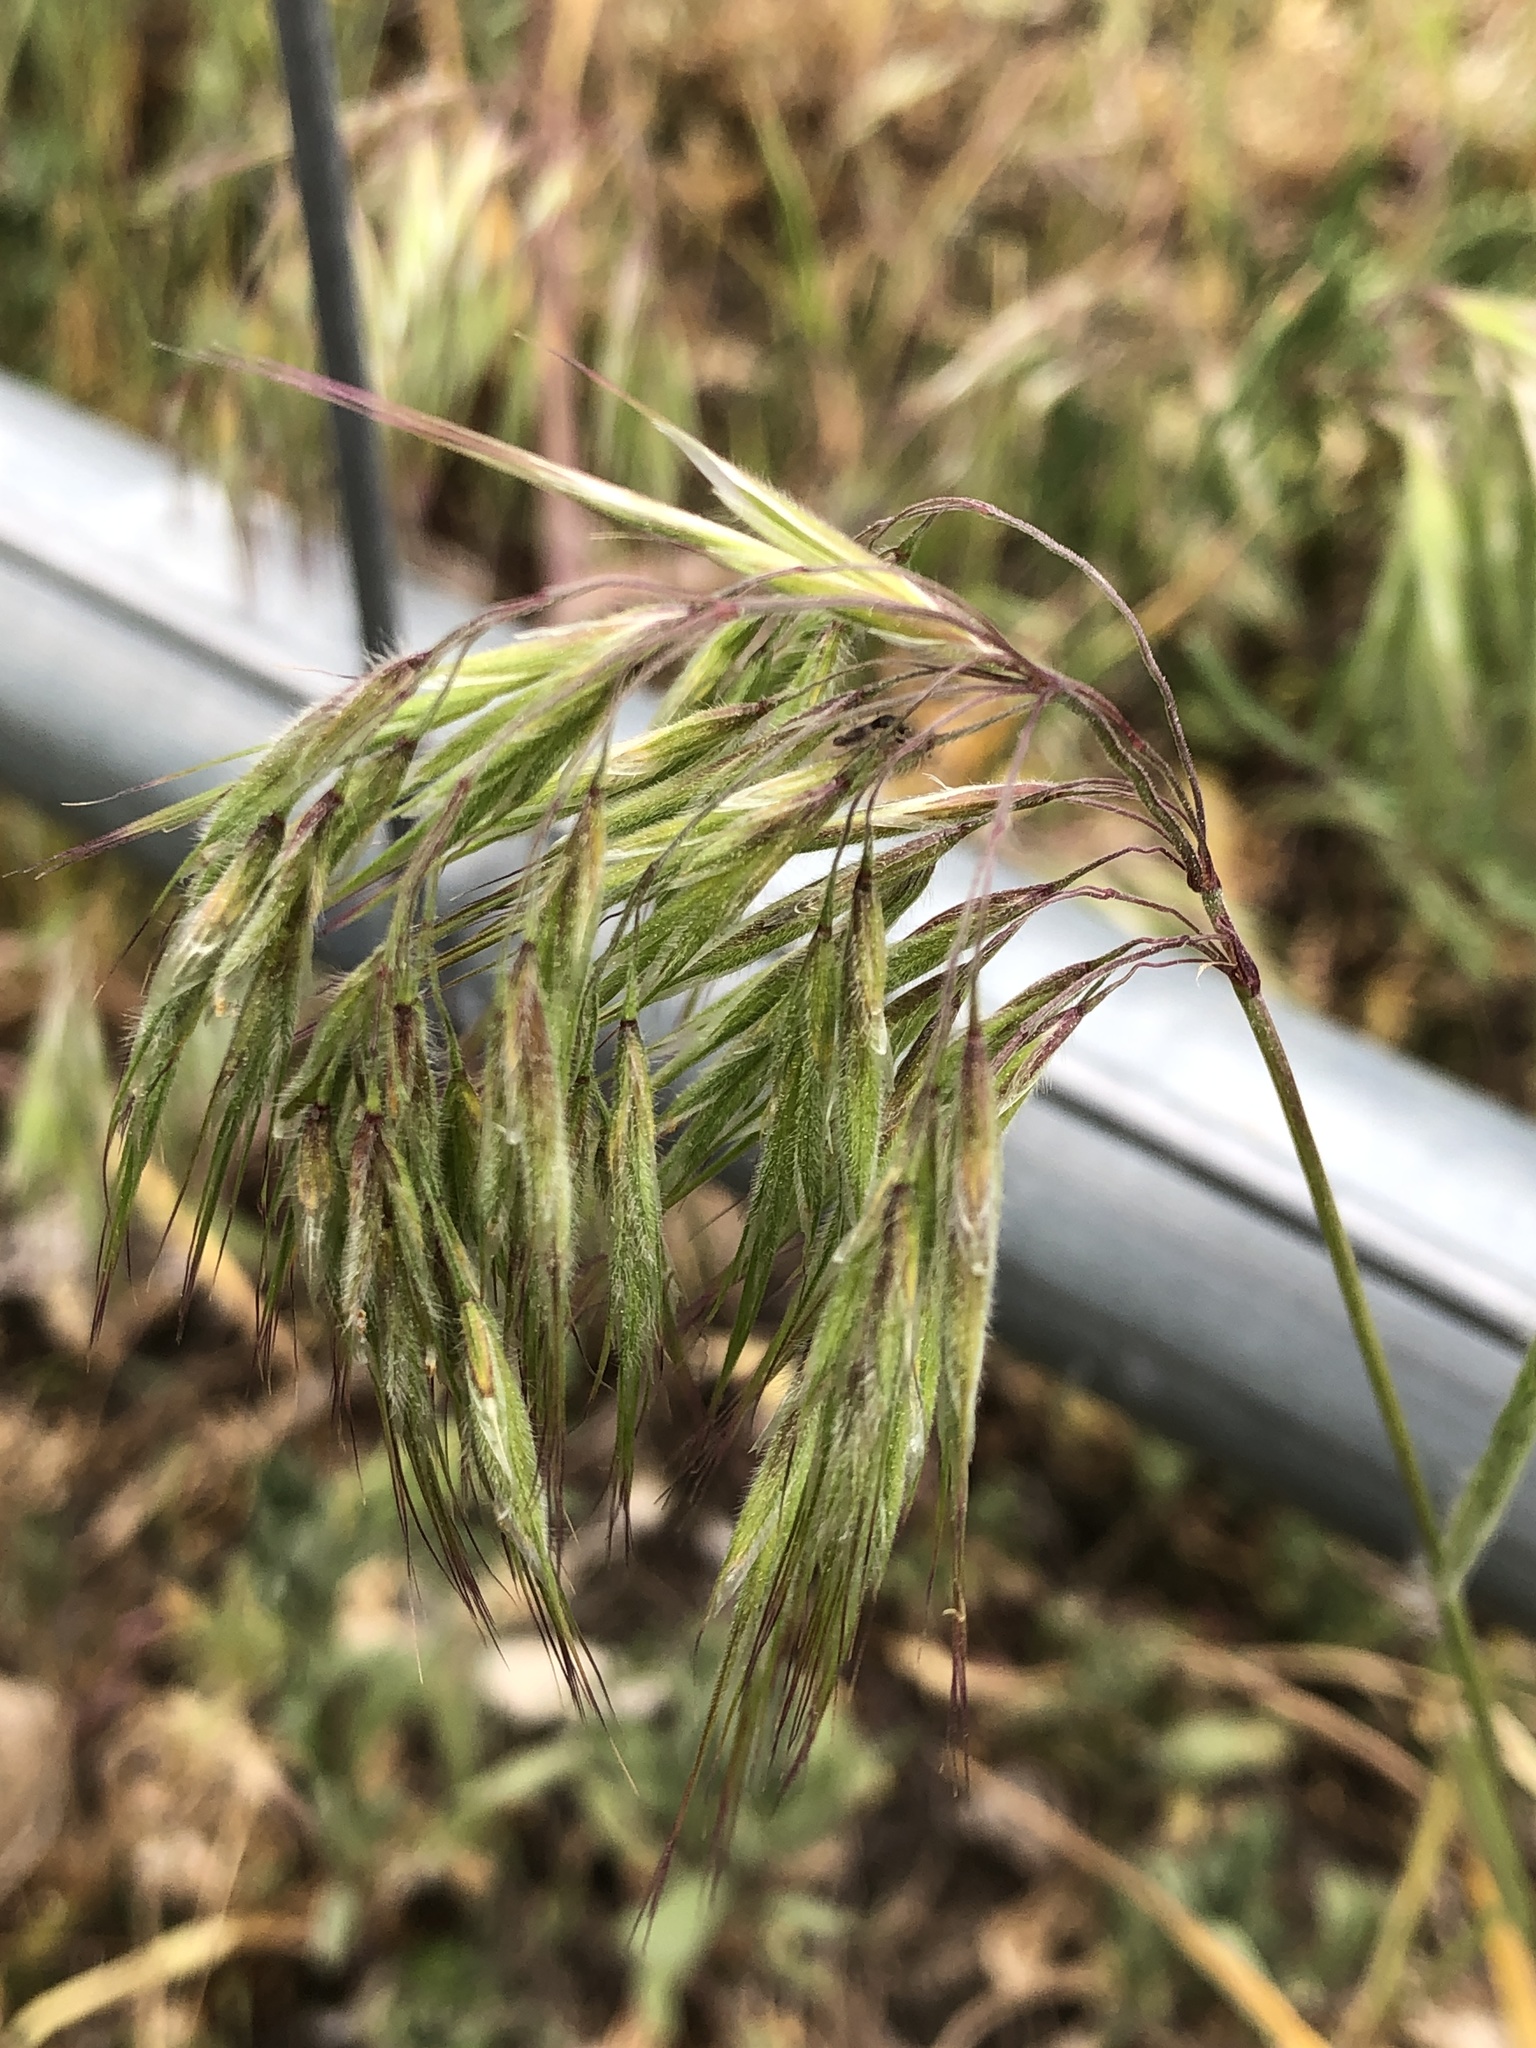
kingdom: Plantae
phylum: Tracheophyta
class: Liliopsida
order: Poales
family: Poaceae
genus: Bromus
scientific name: Bromus tectorum
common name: Cheatgrass
